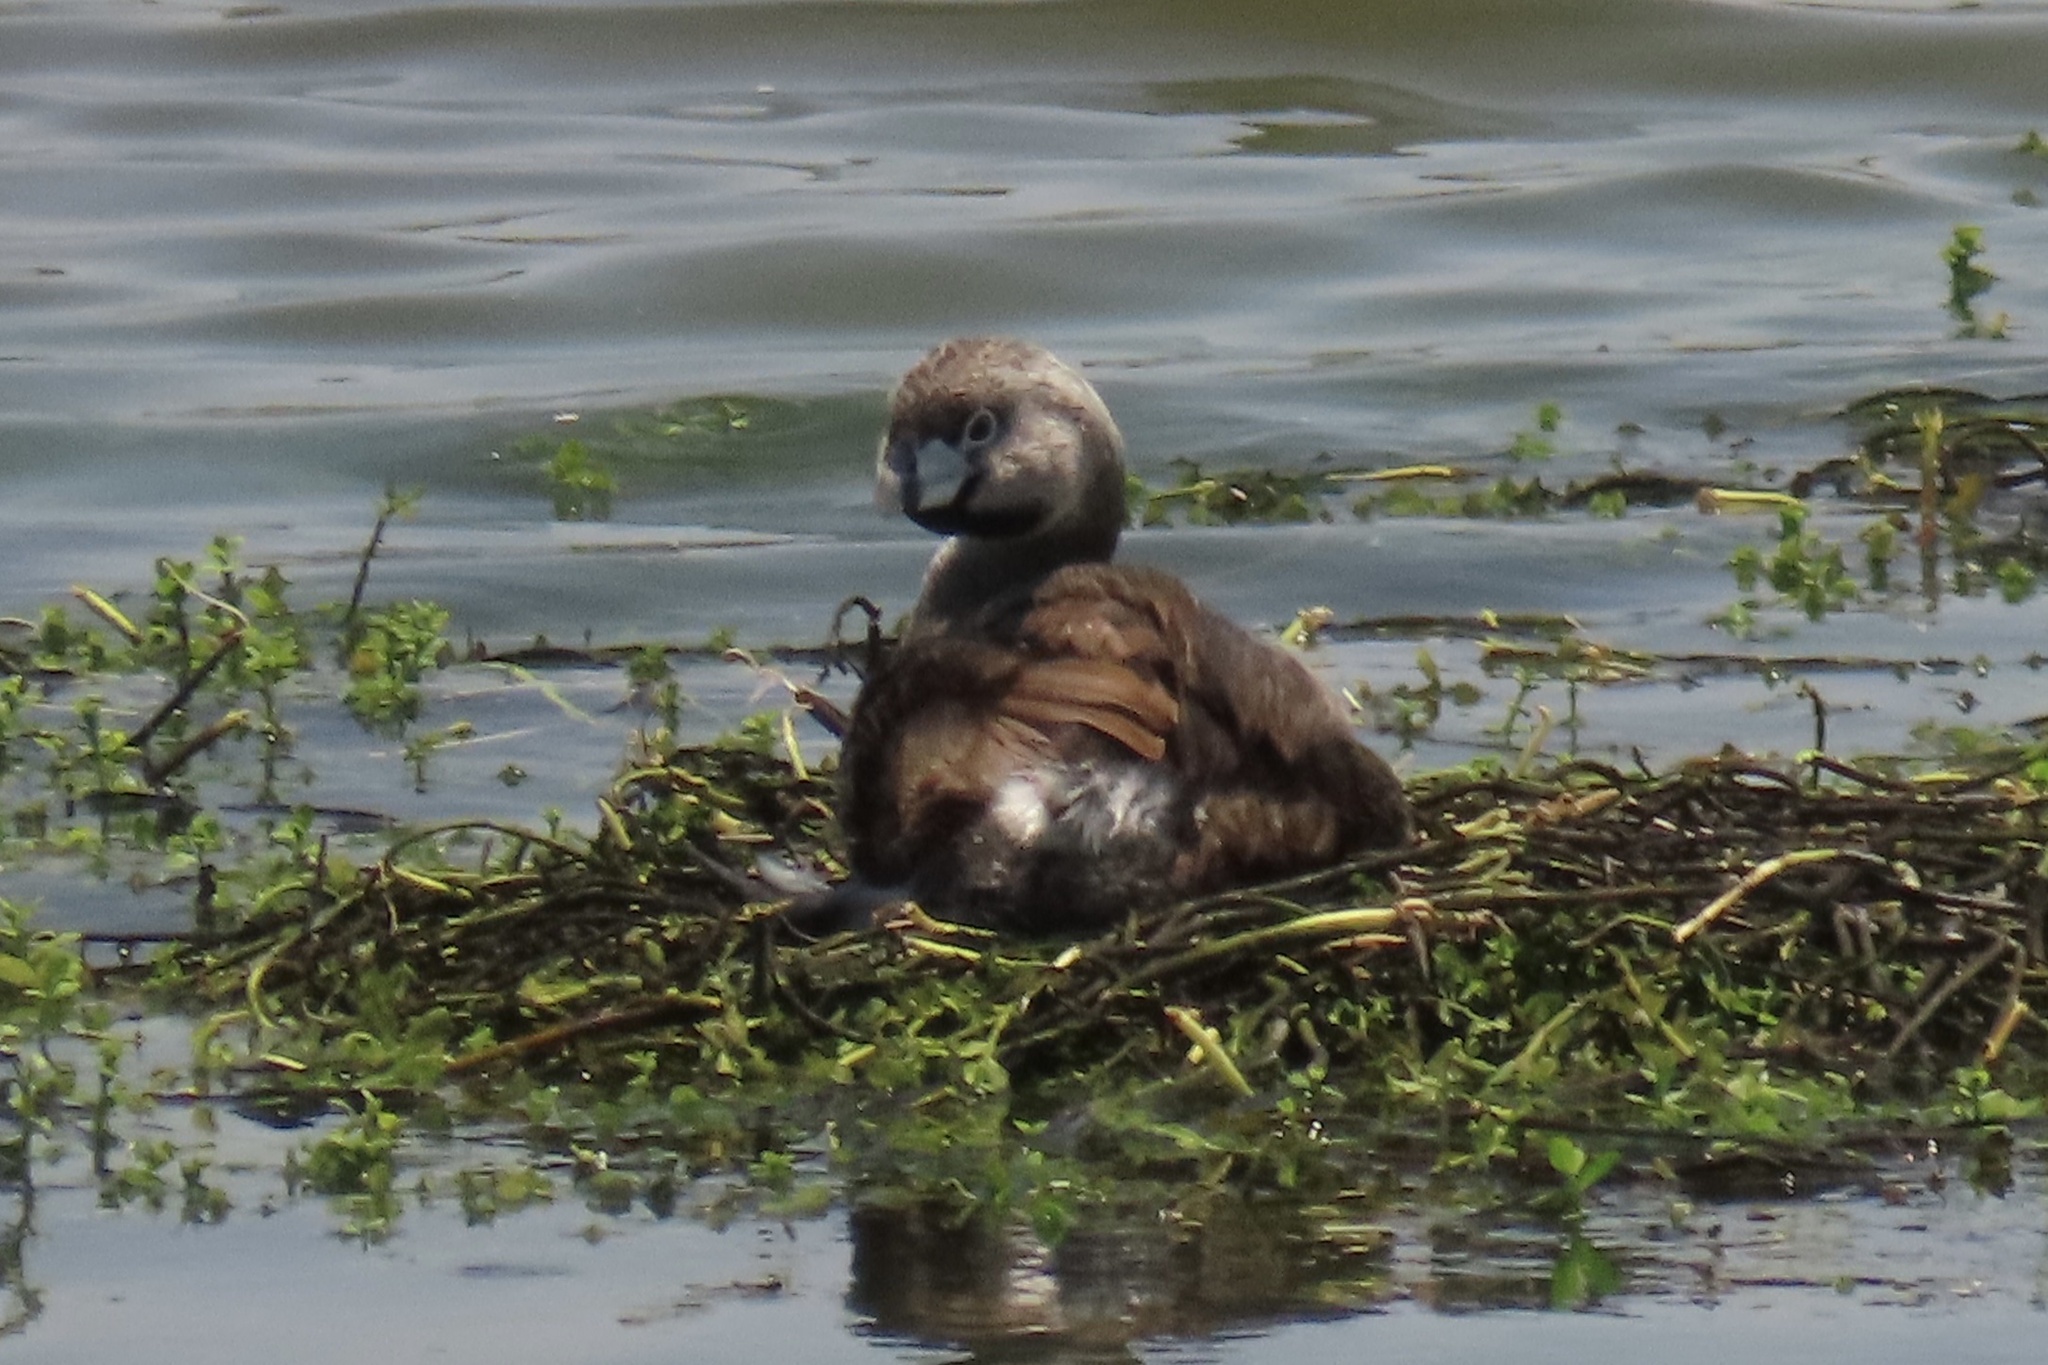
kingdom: Animalia
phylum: Chordata
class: Aves
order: Podicipediformes
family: Podicipedidae
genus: Podilymbus
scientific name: Podilymbus podiceps
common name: Pied-billed grebe
